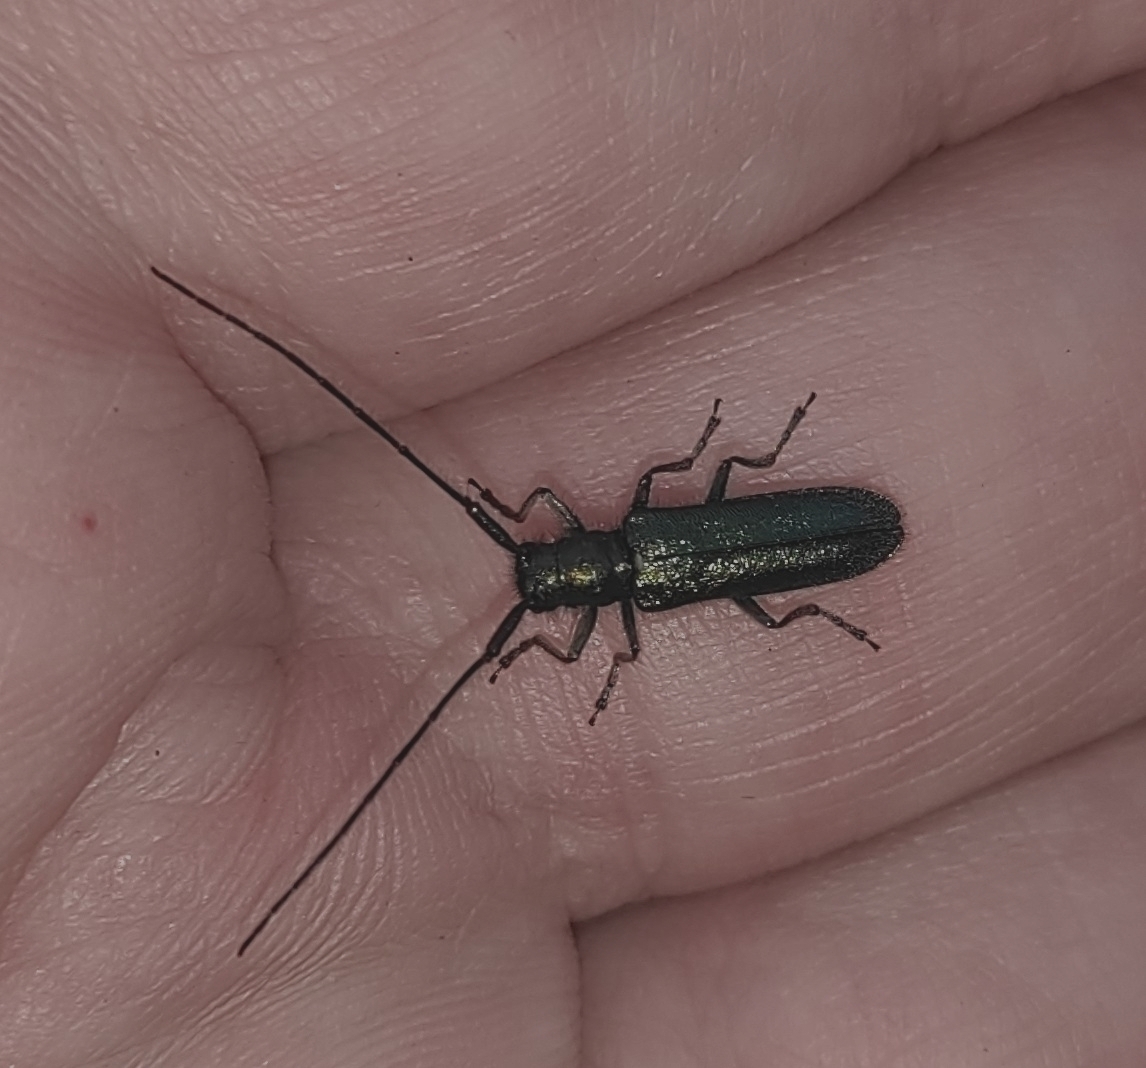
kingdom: Animalia
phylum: Arthropoda
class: Insecta
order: Coleoptera
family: Cerambycidae
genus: Agapanthia
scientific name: Agapanthia violacea
